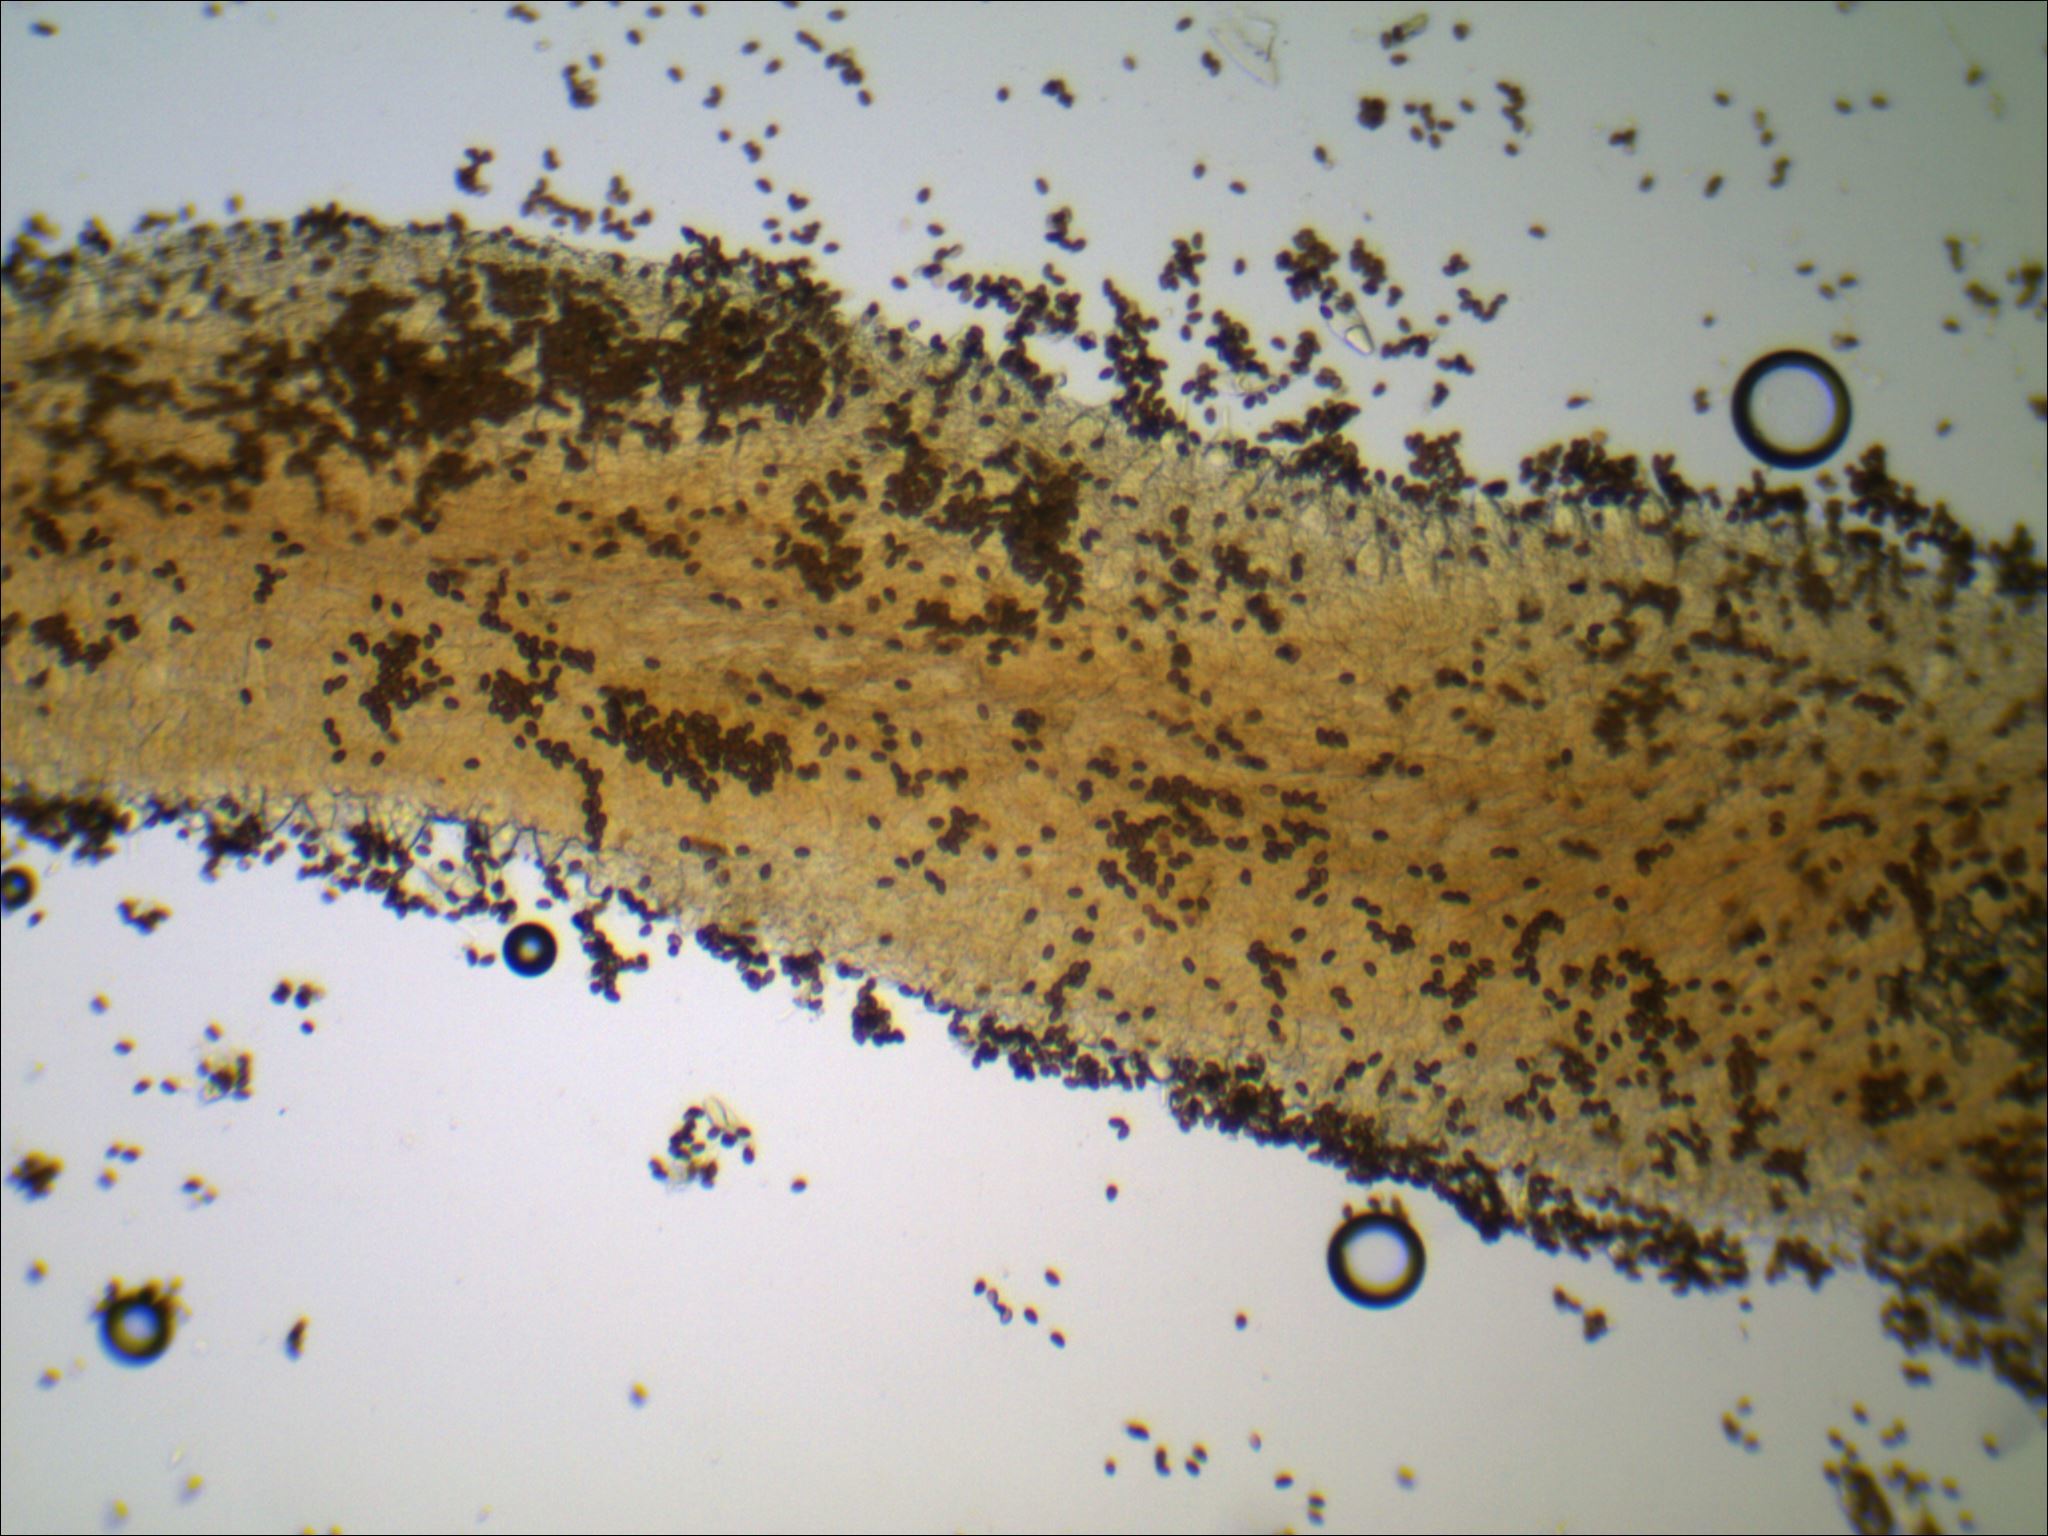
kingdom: Fungi
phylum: Basidiomycota
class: Agaricomycetes
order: Agaricales
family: Psathyrellaceae
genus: Typhrasa
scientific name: Typhrasa gossypina
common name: Wrinkled psathyrella
